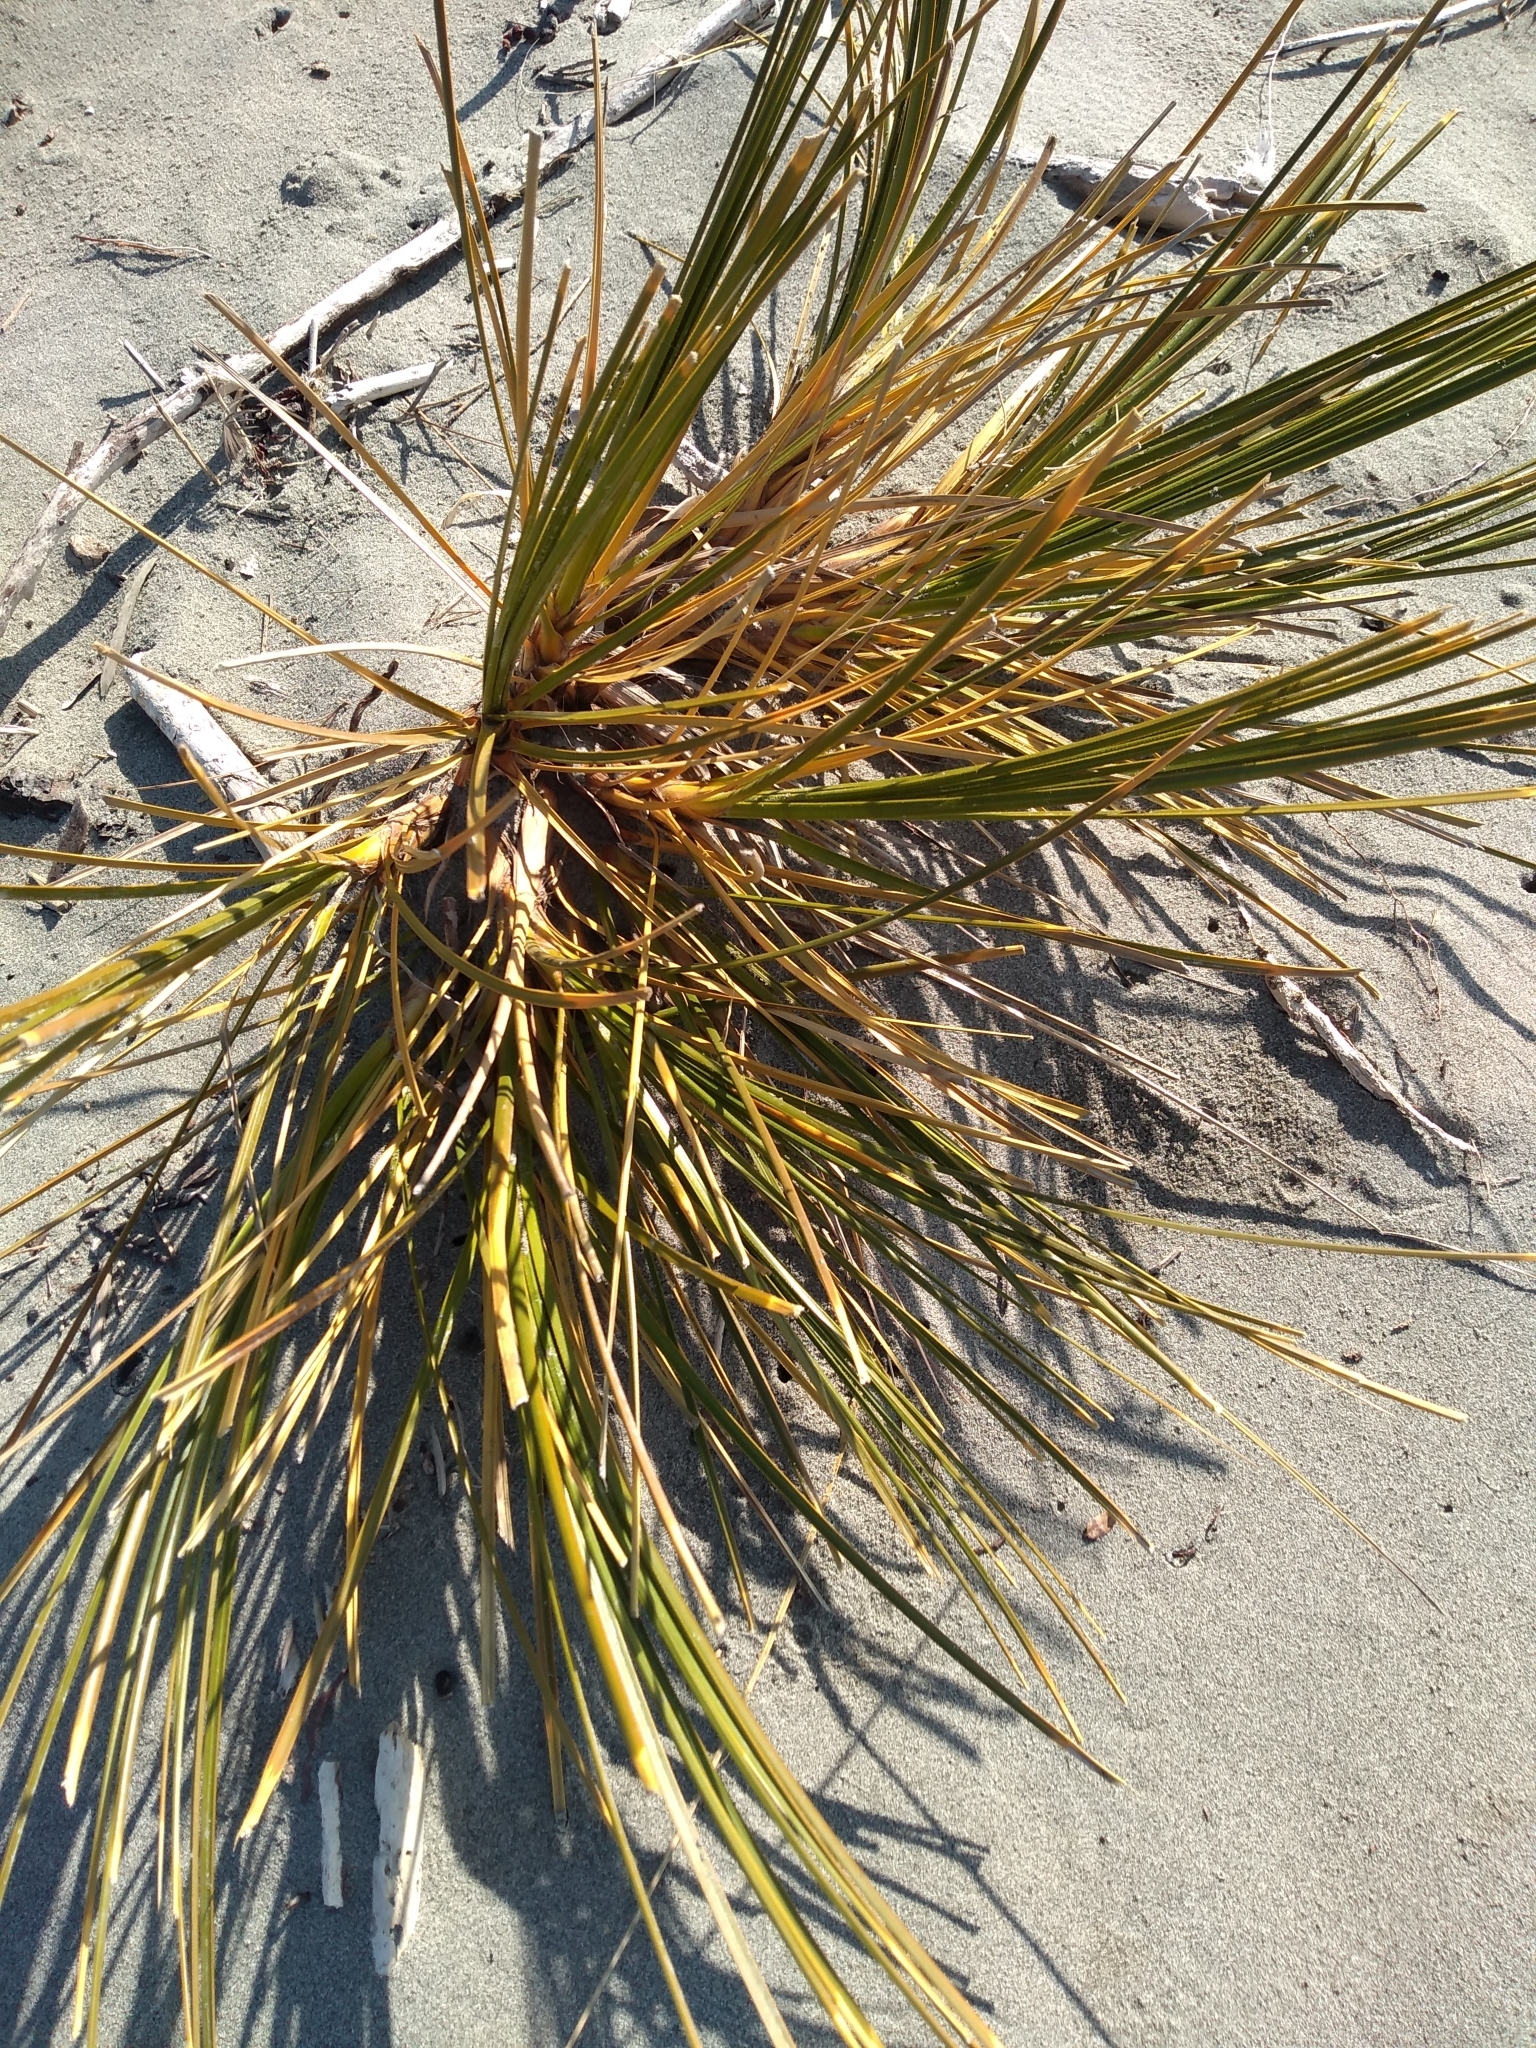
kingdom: Plantae
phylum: Tracheophyta
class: Liliopsida
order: Poales
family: Cyperaceae
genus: Ficinia
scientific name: Ficinia spiralis
